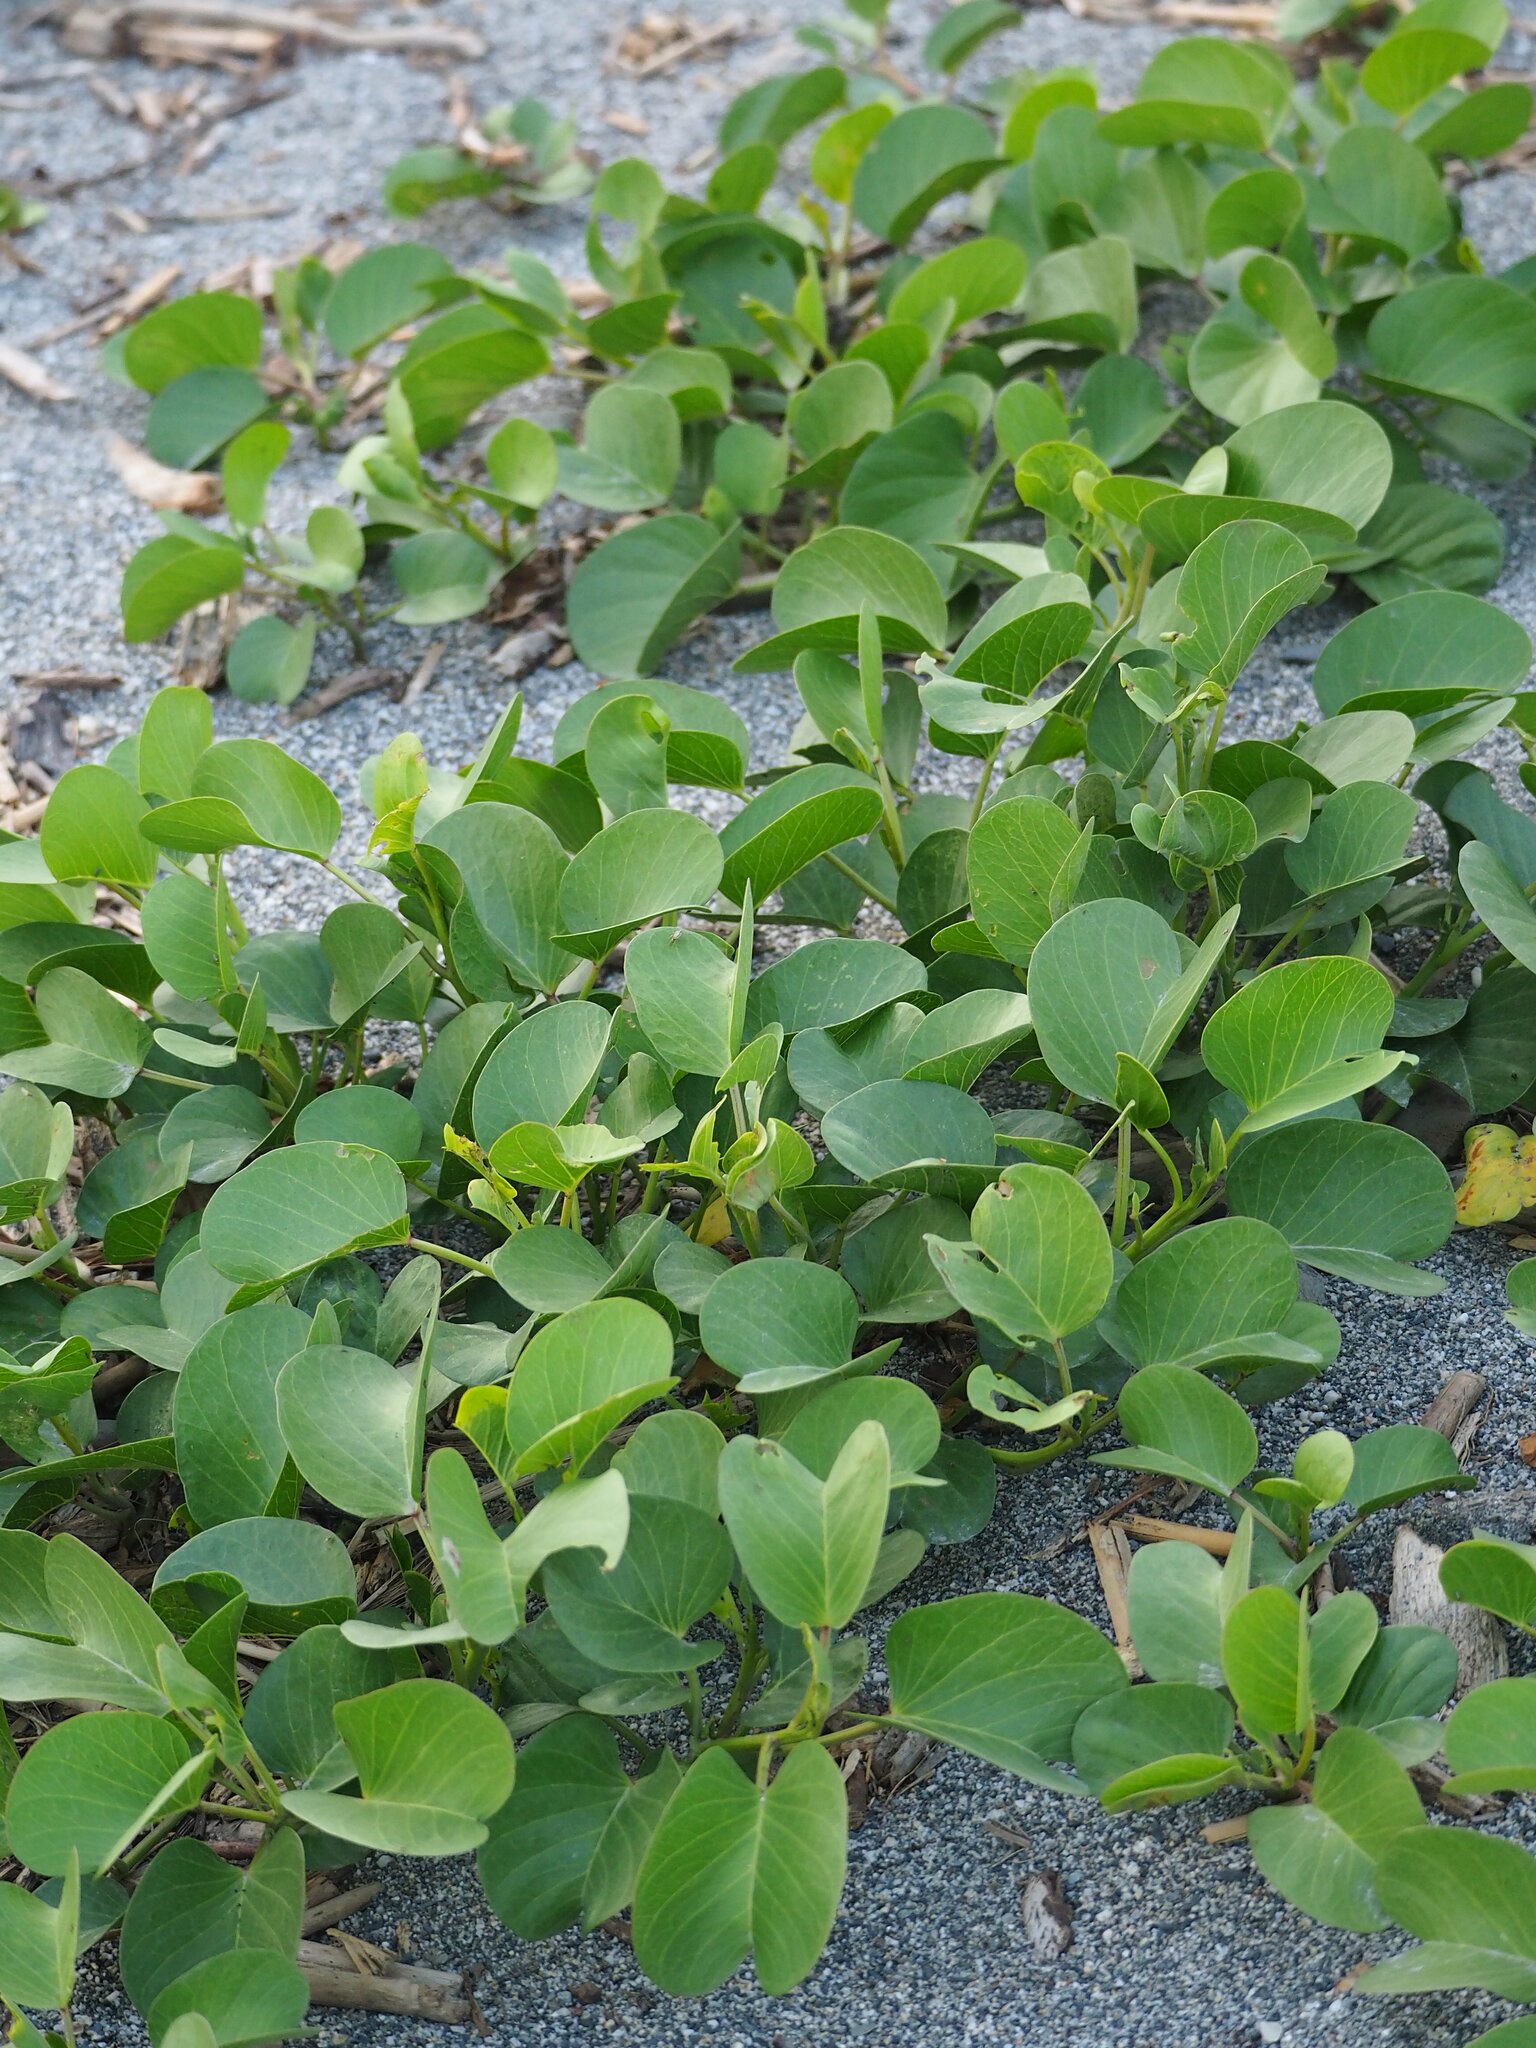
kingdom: Plantae
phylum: Tracheophyta
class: Magnoliopsida
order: Solanales
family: Convolvulaceae
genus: Ipomoea
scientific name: Ipomoea pes-caprae
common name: Beach morning glory
